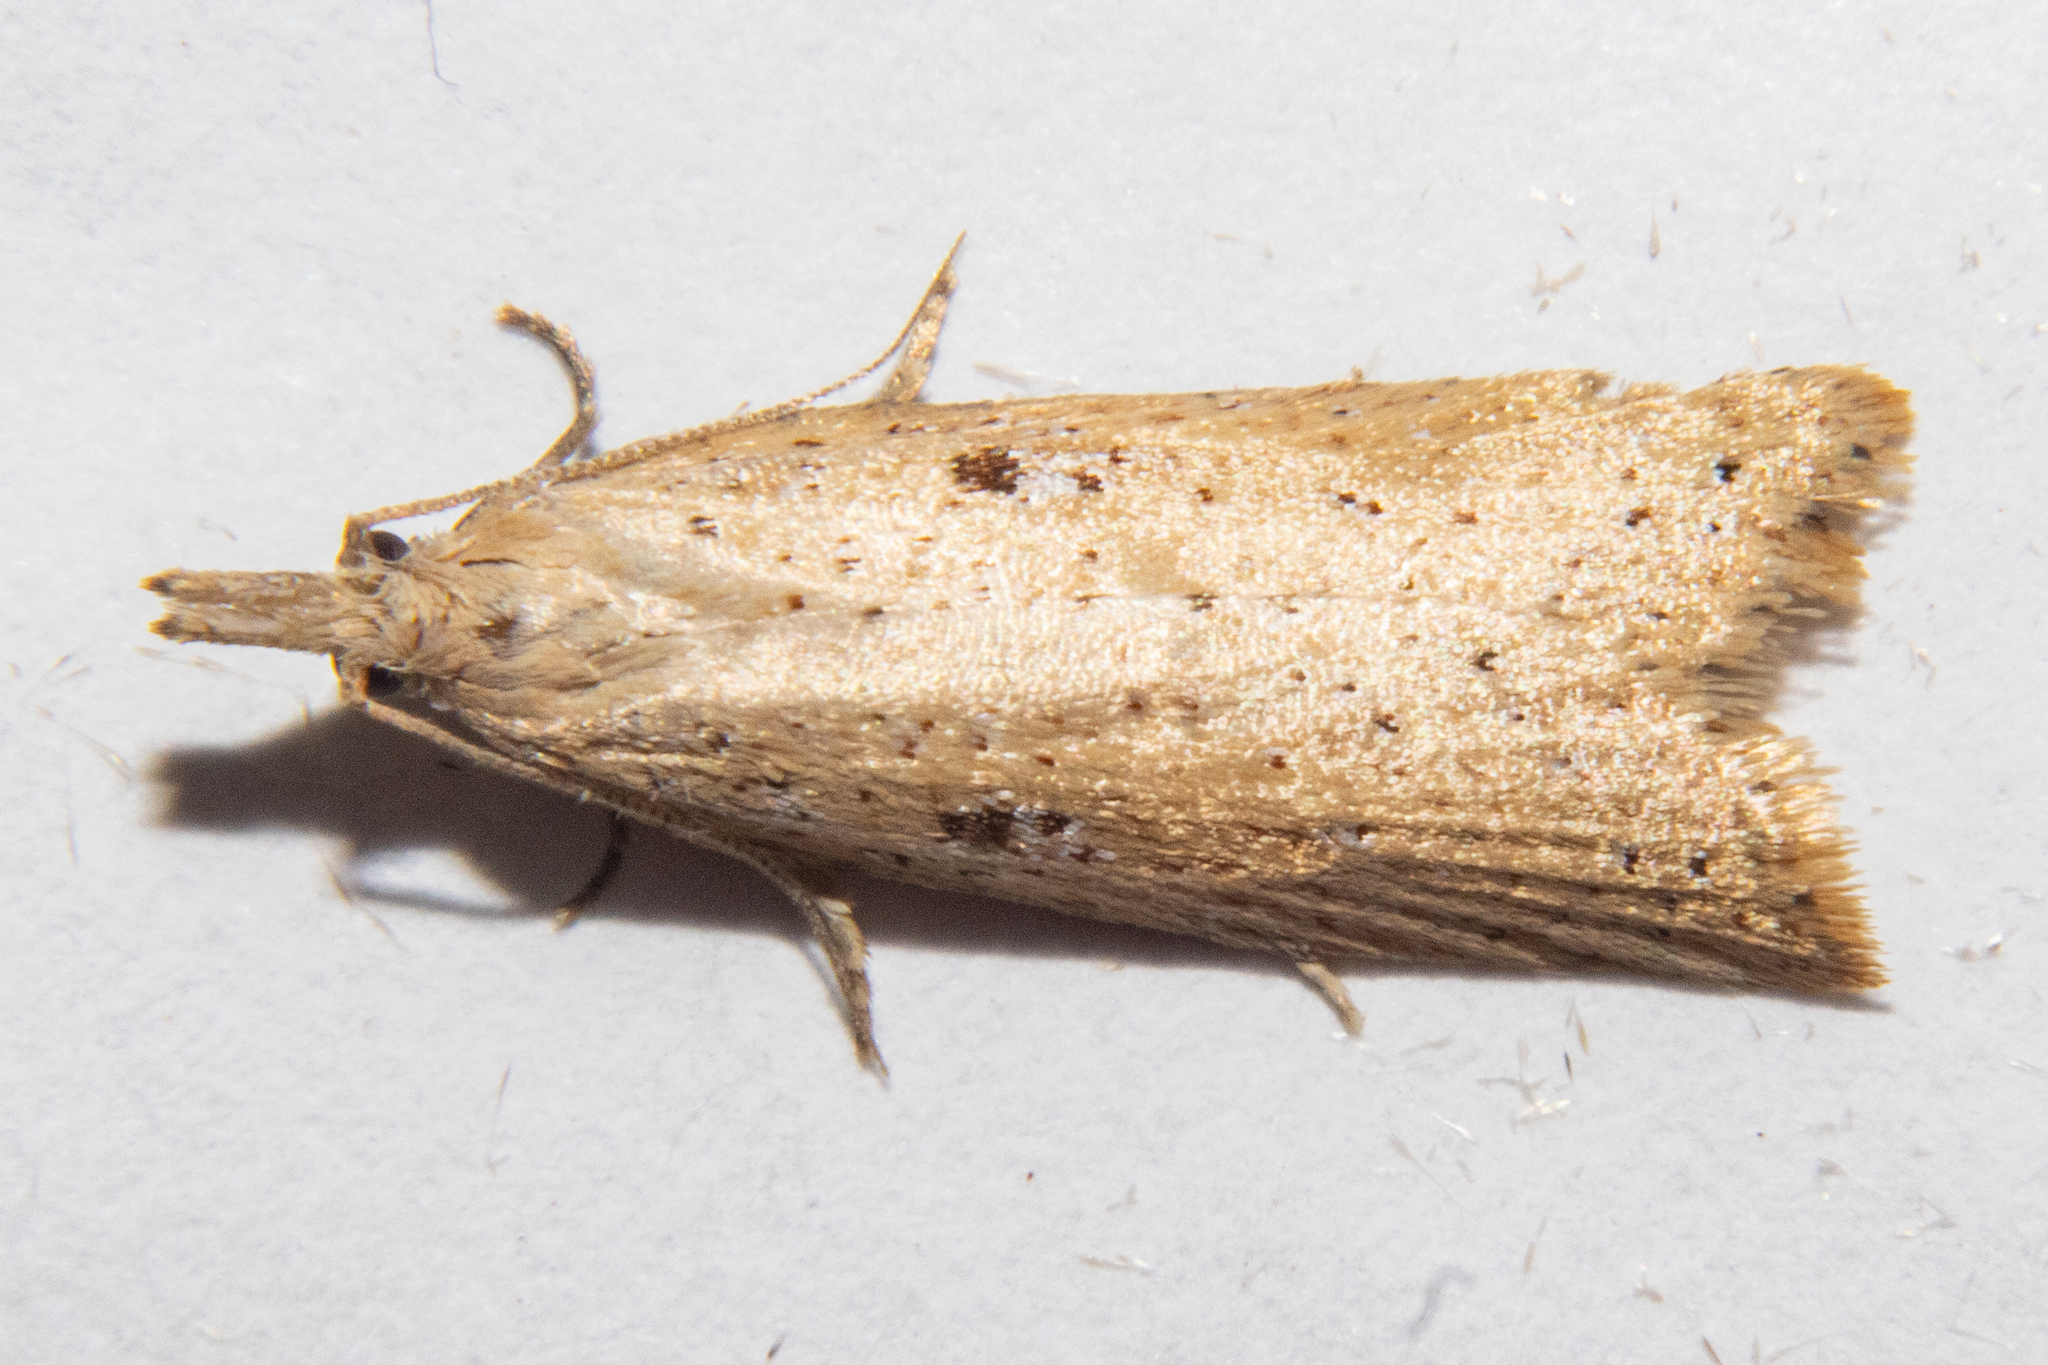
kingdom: Animalia
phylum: Arthropoda
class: Insecta
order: Lepidoptera
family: Tortricidae
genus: Apoctena
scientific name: Apoctena persecta
